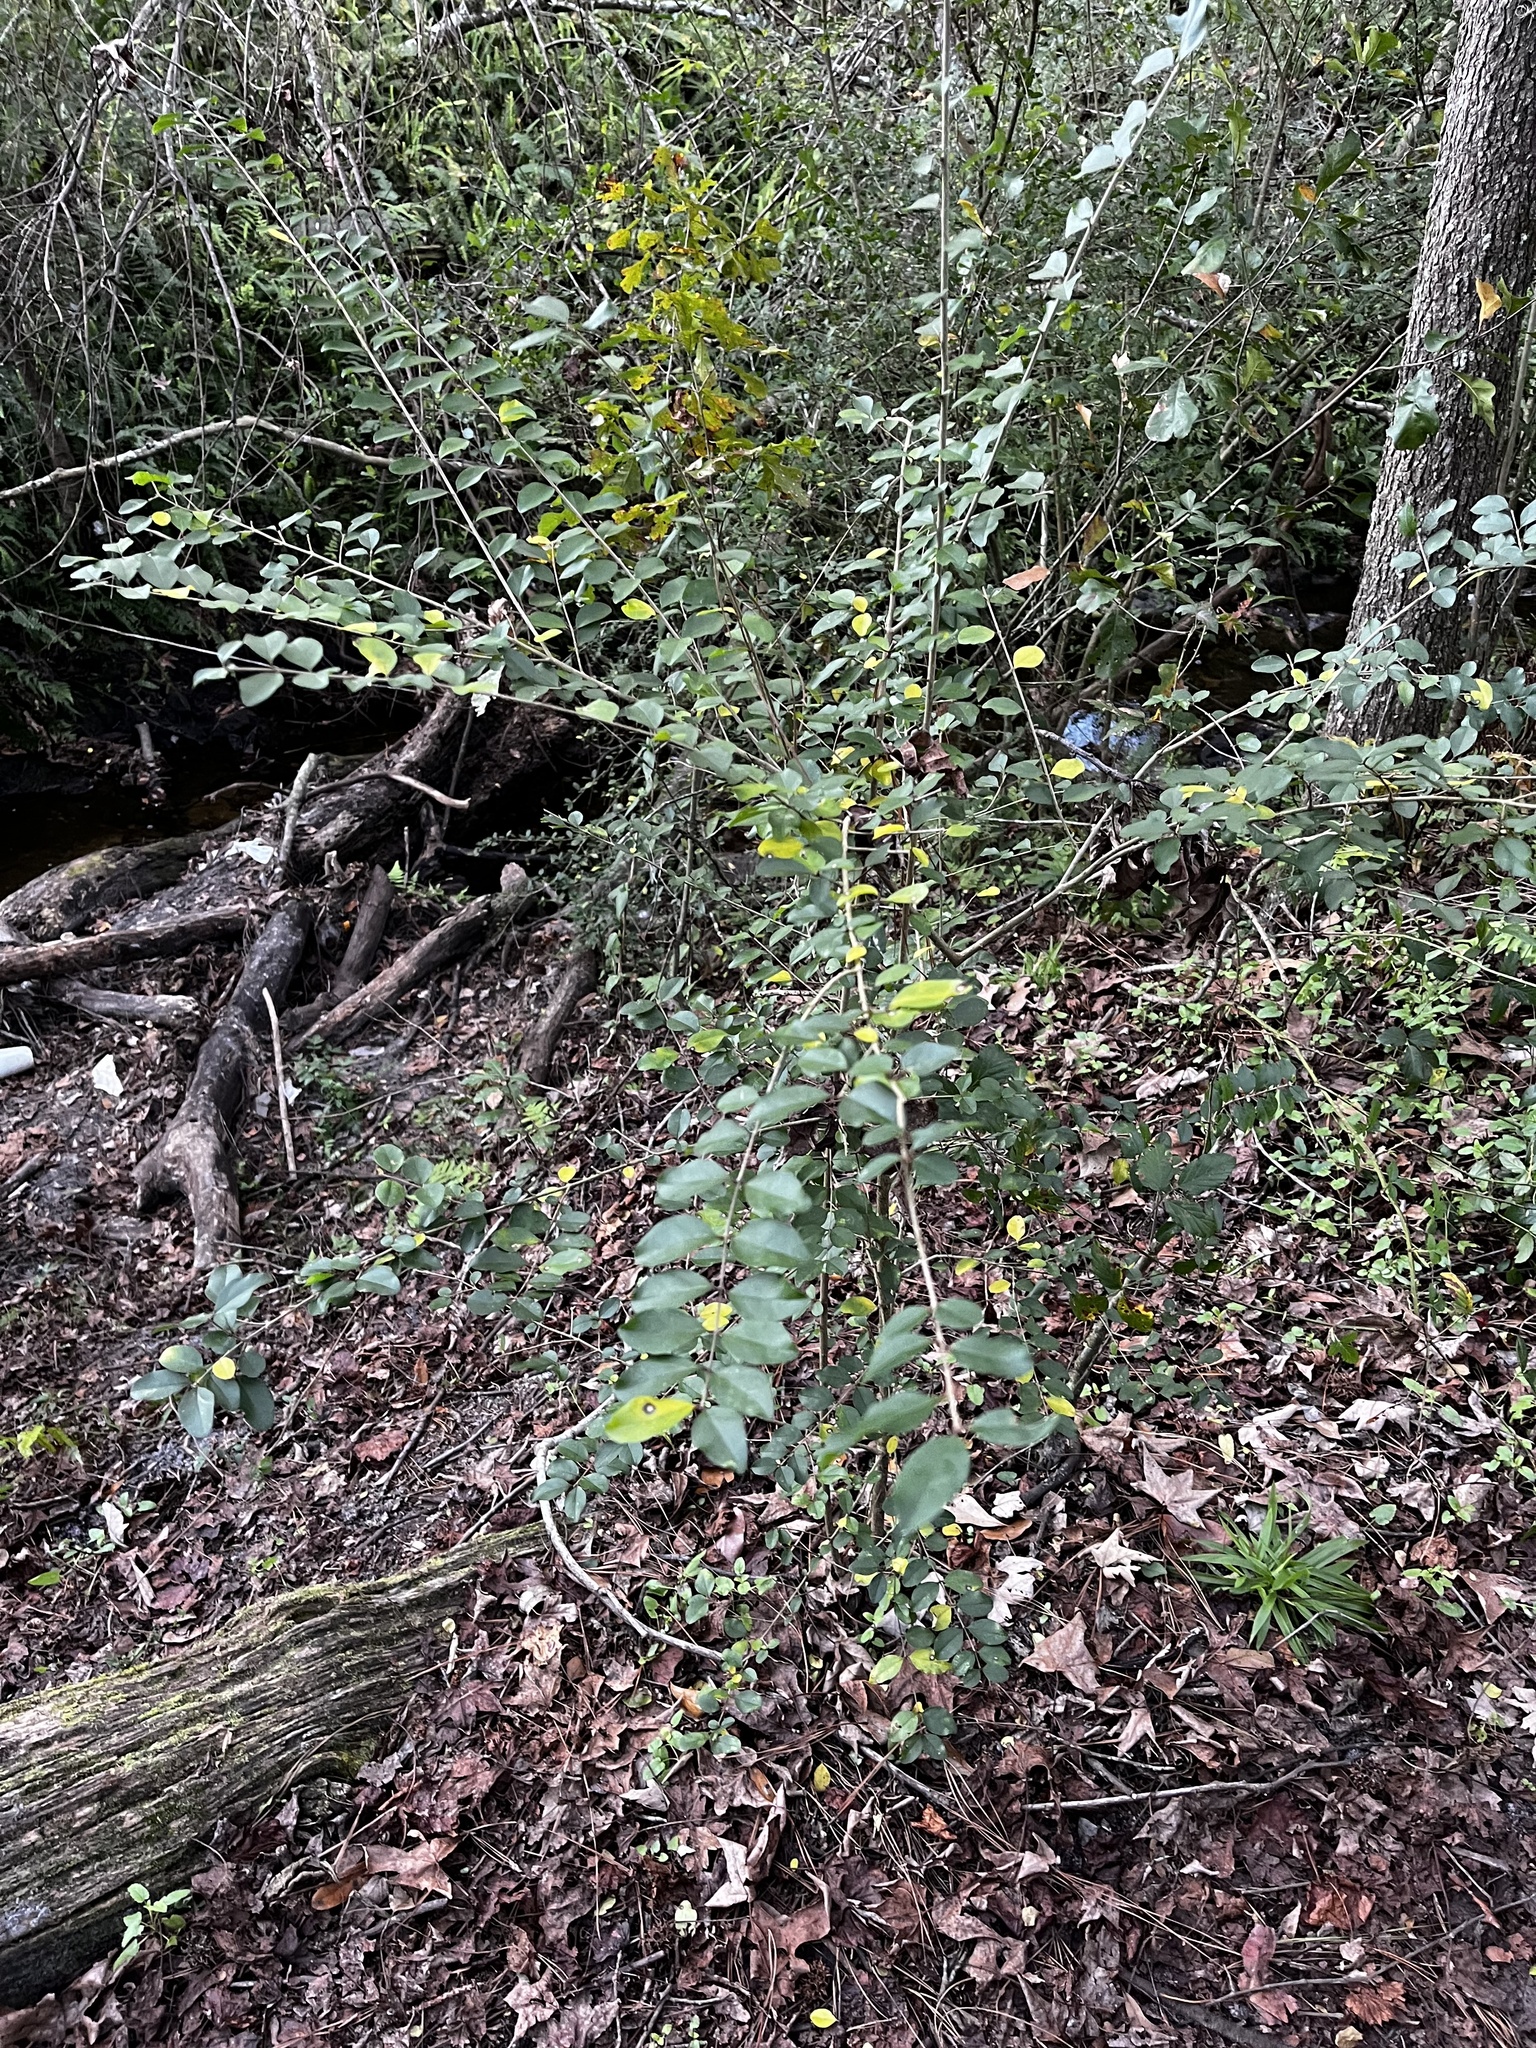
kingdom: Plantae
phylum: Tracheophyta
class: Magnoliopsida
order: Lamiales
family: Oleaceae
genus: Ligustrum
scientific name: Ligustrum sinense
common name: Chinese privet
